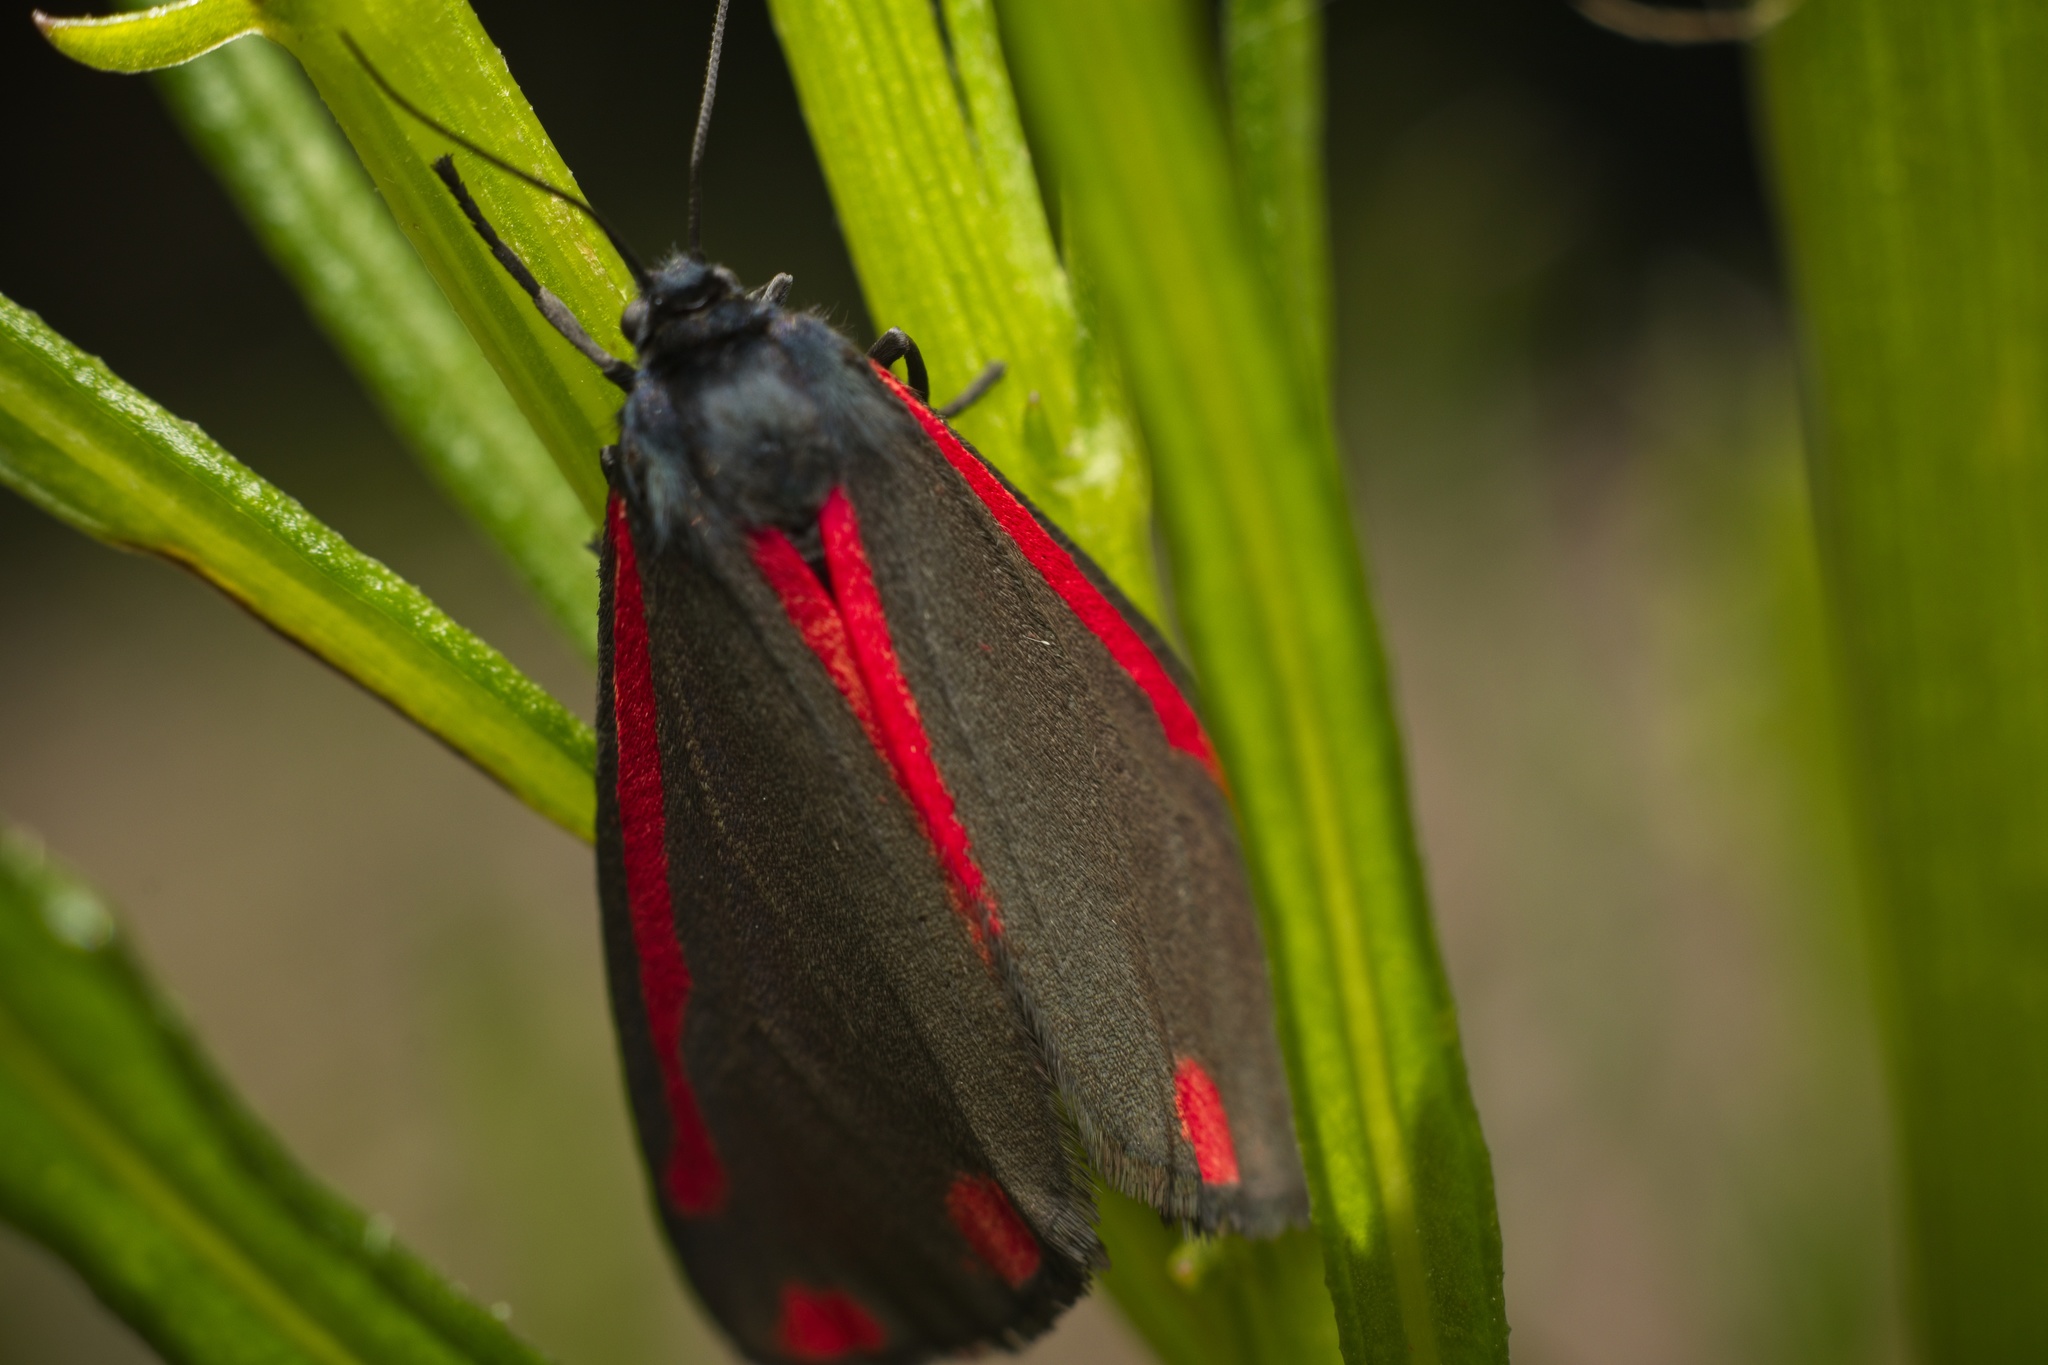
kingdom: Animalia
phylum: Arthropoda
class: Insecta
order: Lepidoptera
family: Erebidae
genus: Tyria
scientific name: Tyria jacobaeae
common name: Cinnabar
